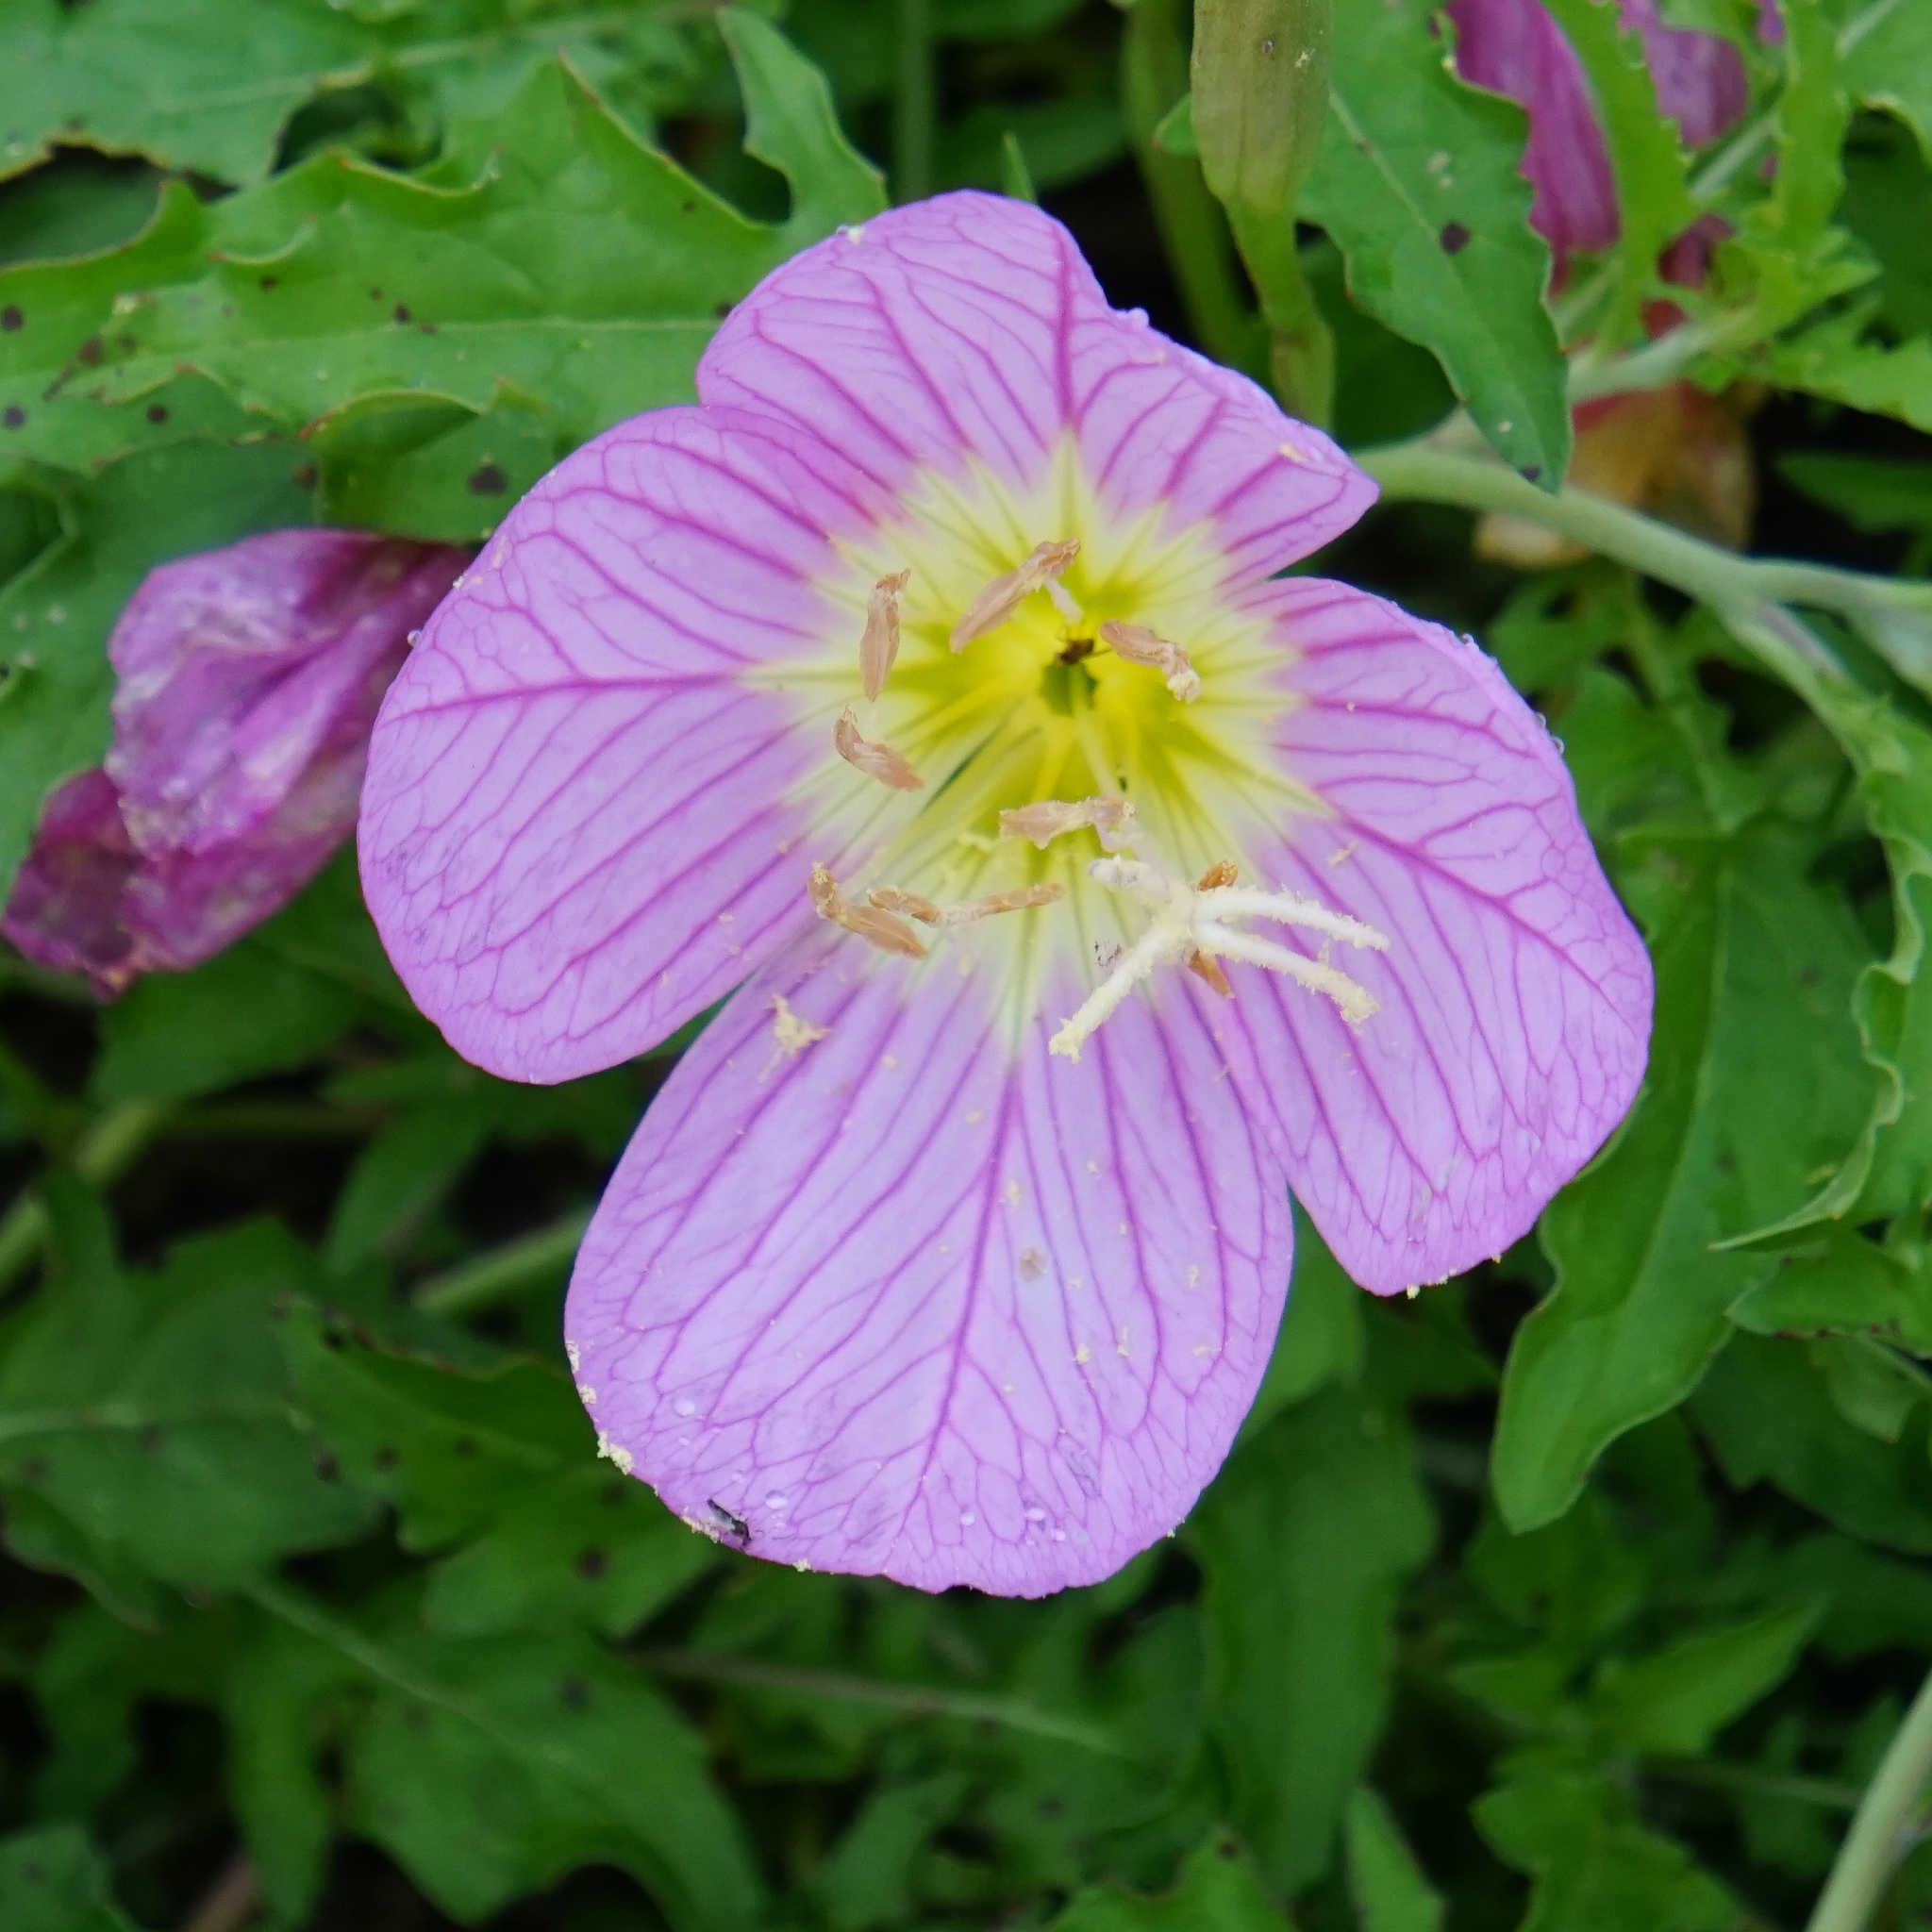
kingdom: Plantae
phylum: Tracheophyta
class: Magnoliopsida
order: Myrtales
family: Onagraceae
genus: Oenothera
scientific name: Oenothera speciosa
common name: White evening-primrose
